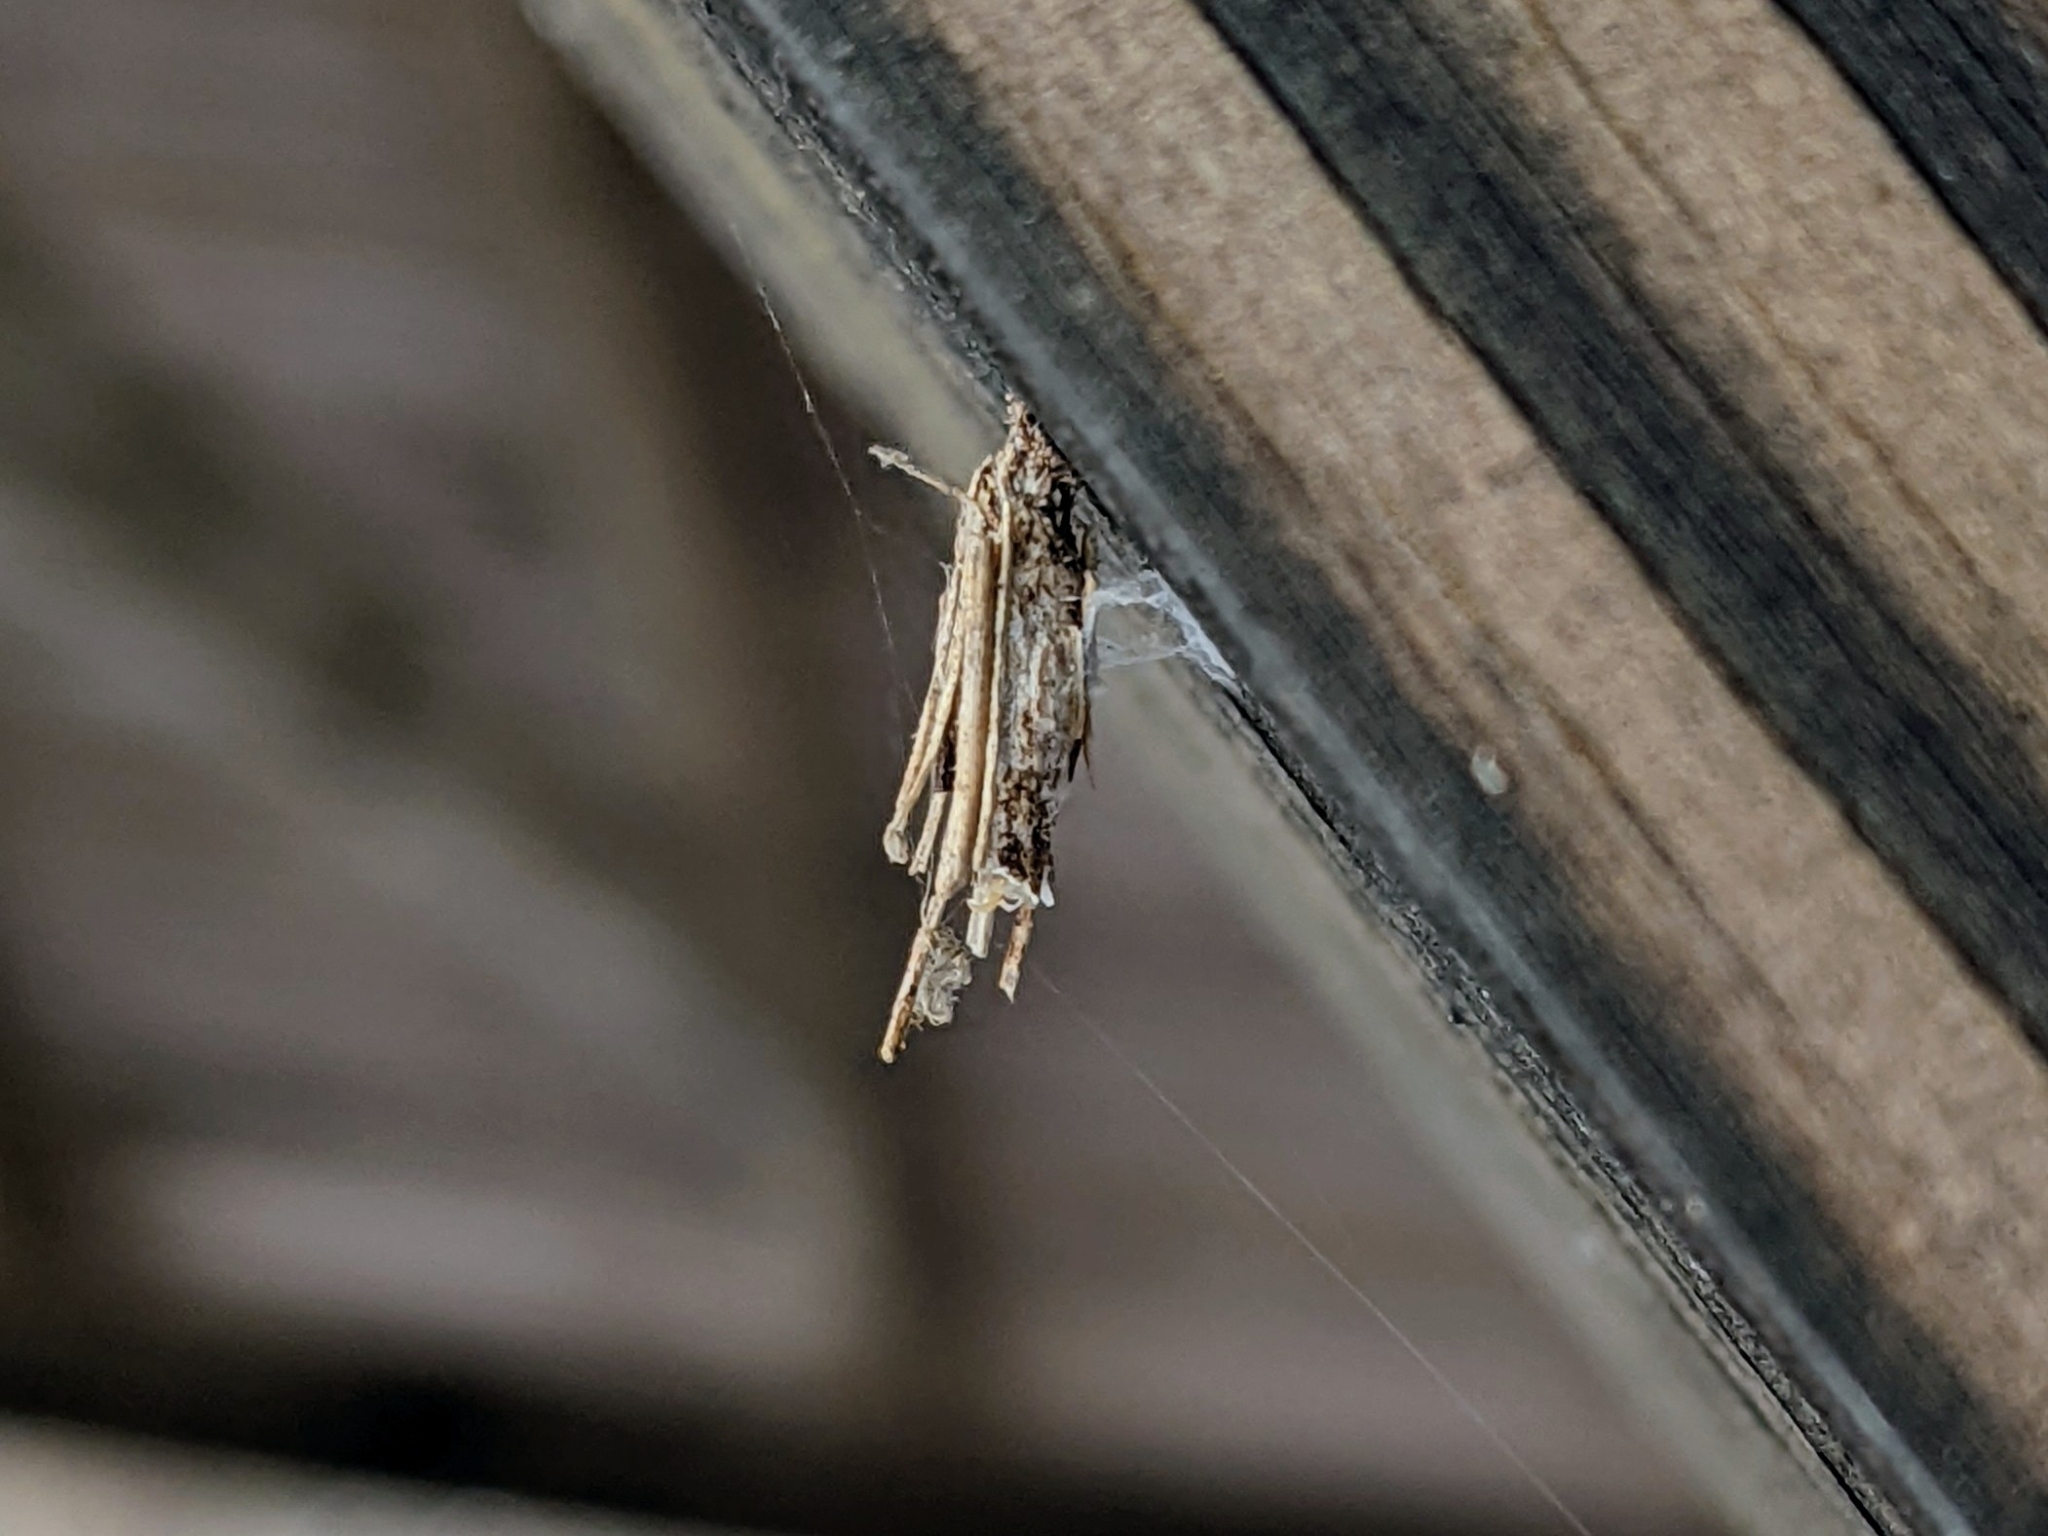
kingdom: Animalia
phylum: Arthropoda
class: Insecta
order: Lepidoptera
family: Psychidae
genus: Psyche
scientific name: Psyche casta
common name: Common sweep
